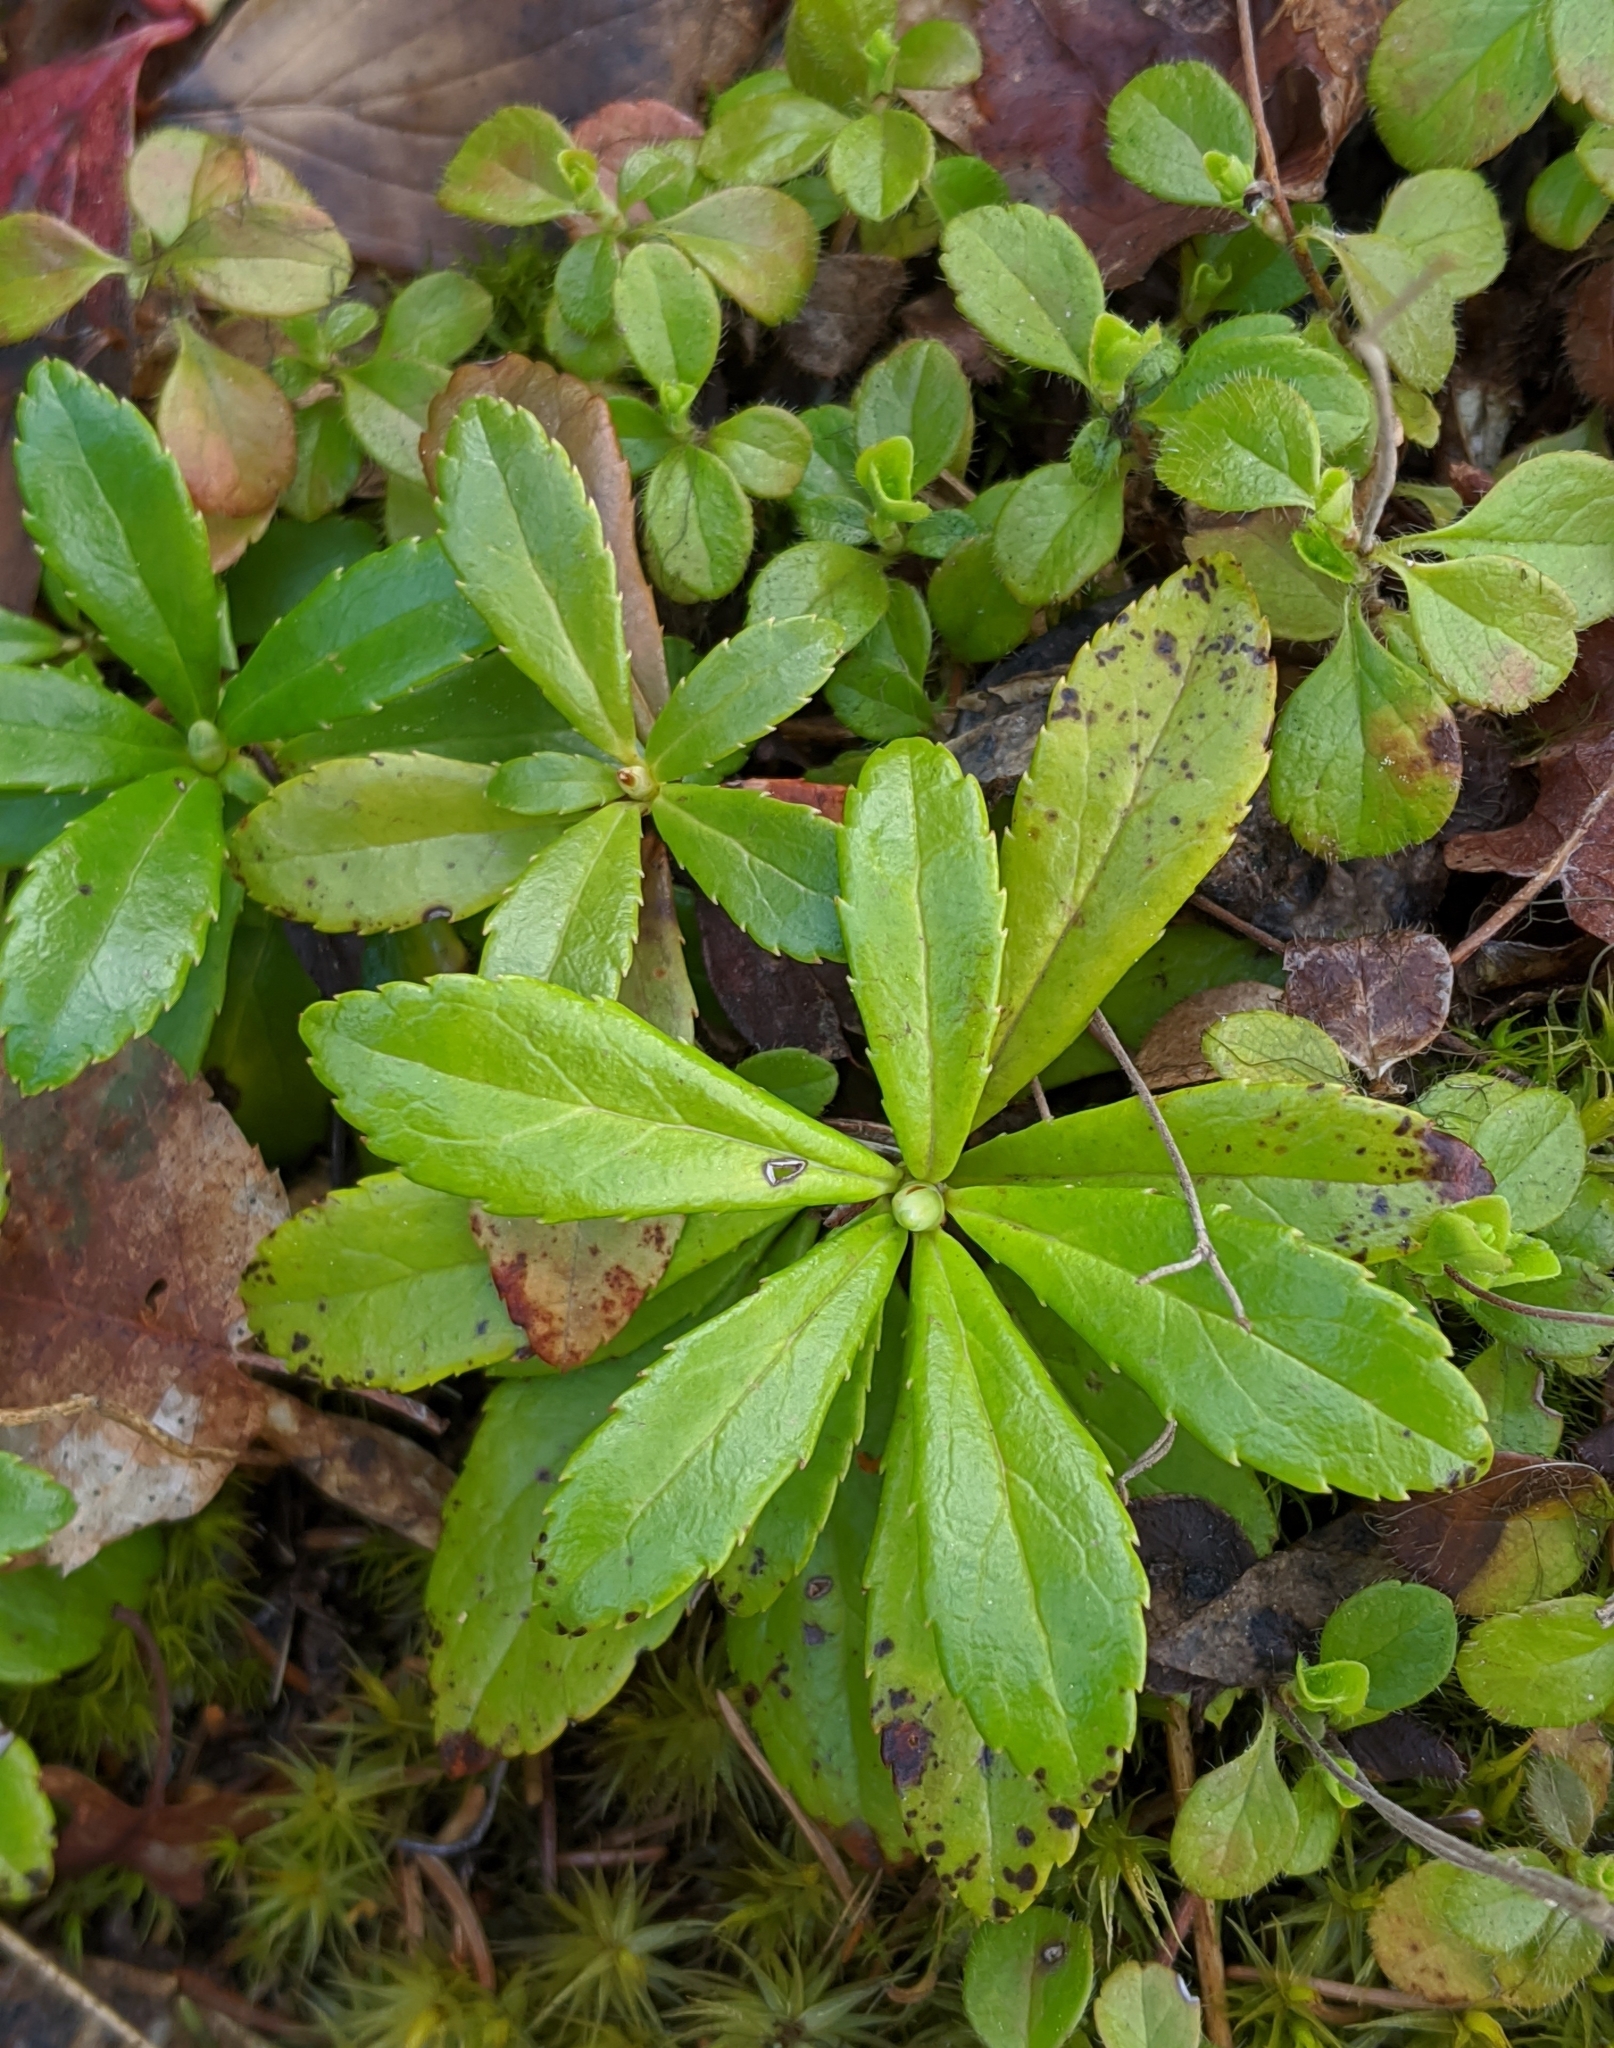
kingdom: Plantae
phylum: Tracheophyta
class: Magnoliopsida
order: Ericales
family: Ericaceae
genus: Chimaphila
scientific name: Chimaphila umbellata
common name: Pipsissewa
